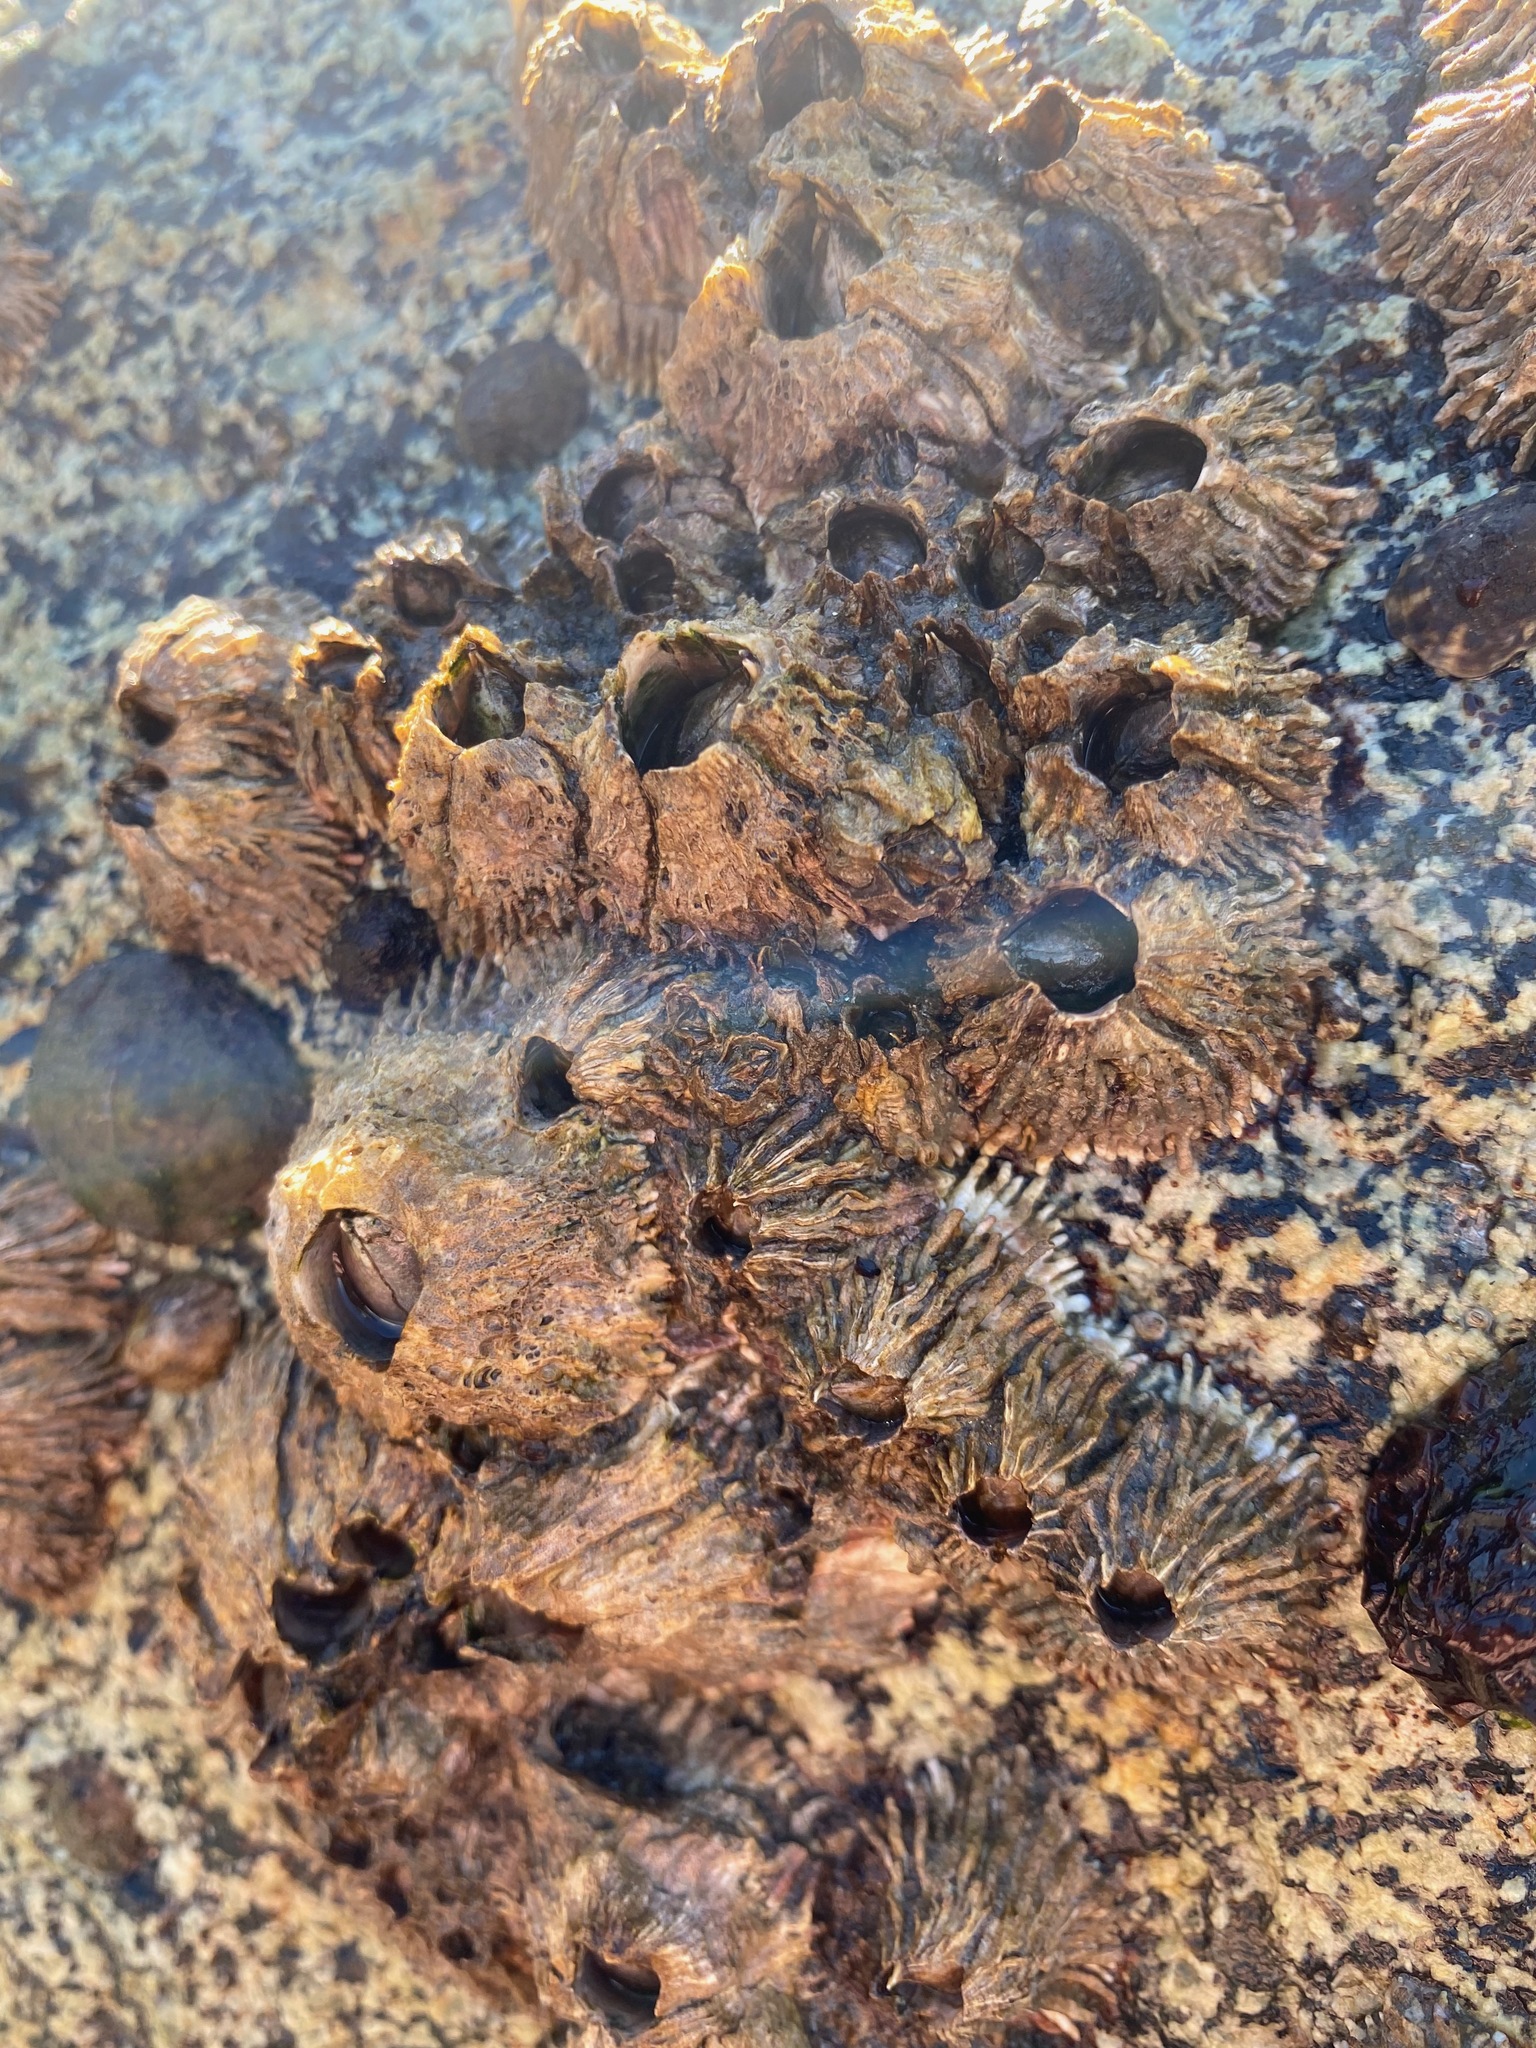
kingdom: Animalia
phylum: Arthropoda
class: Maxillopoda
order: Sessilia
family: Archaeobalanidae
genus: Semibalanus
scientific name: Semibalanus cariosus
